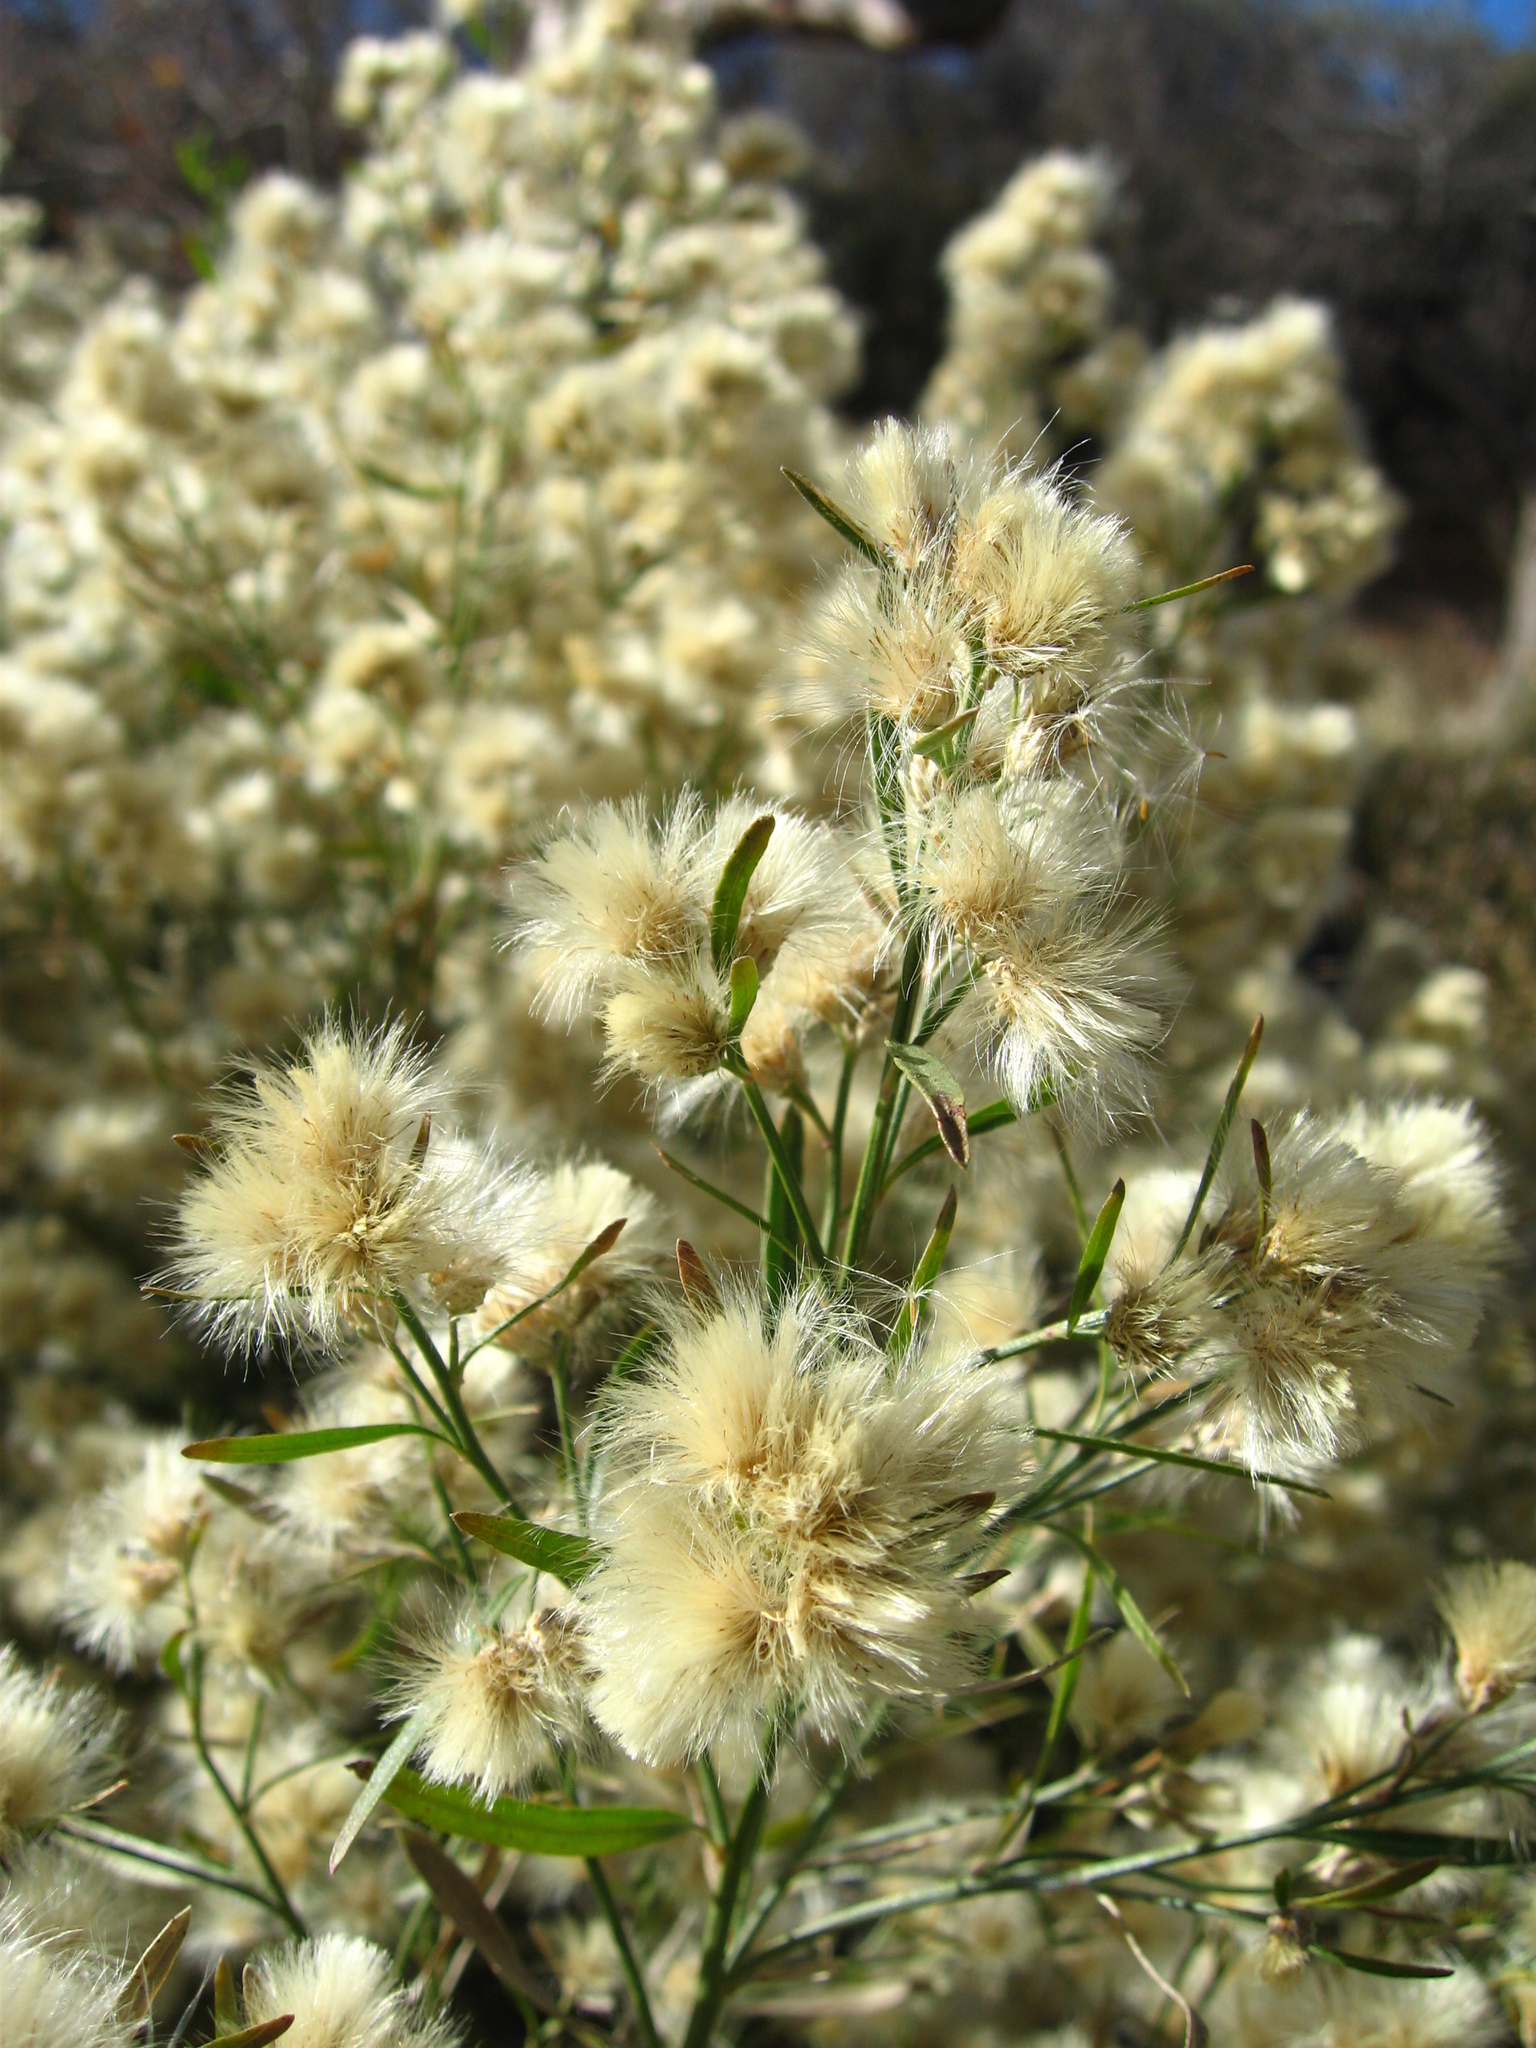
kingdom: Plantae
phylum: Tracheophyta
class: Magnoliopsida
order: Asterales
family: Asteraceae
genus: Baccharis
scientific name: Baccharis sarothroides
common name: Desert-broom
